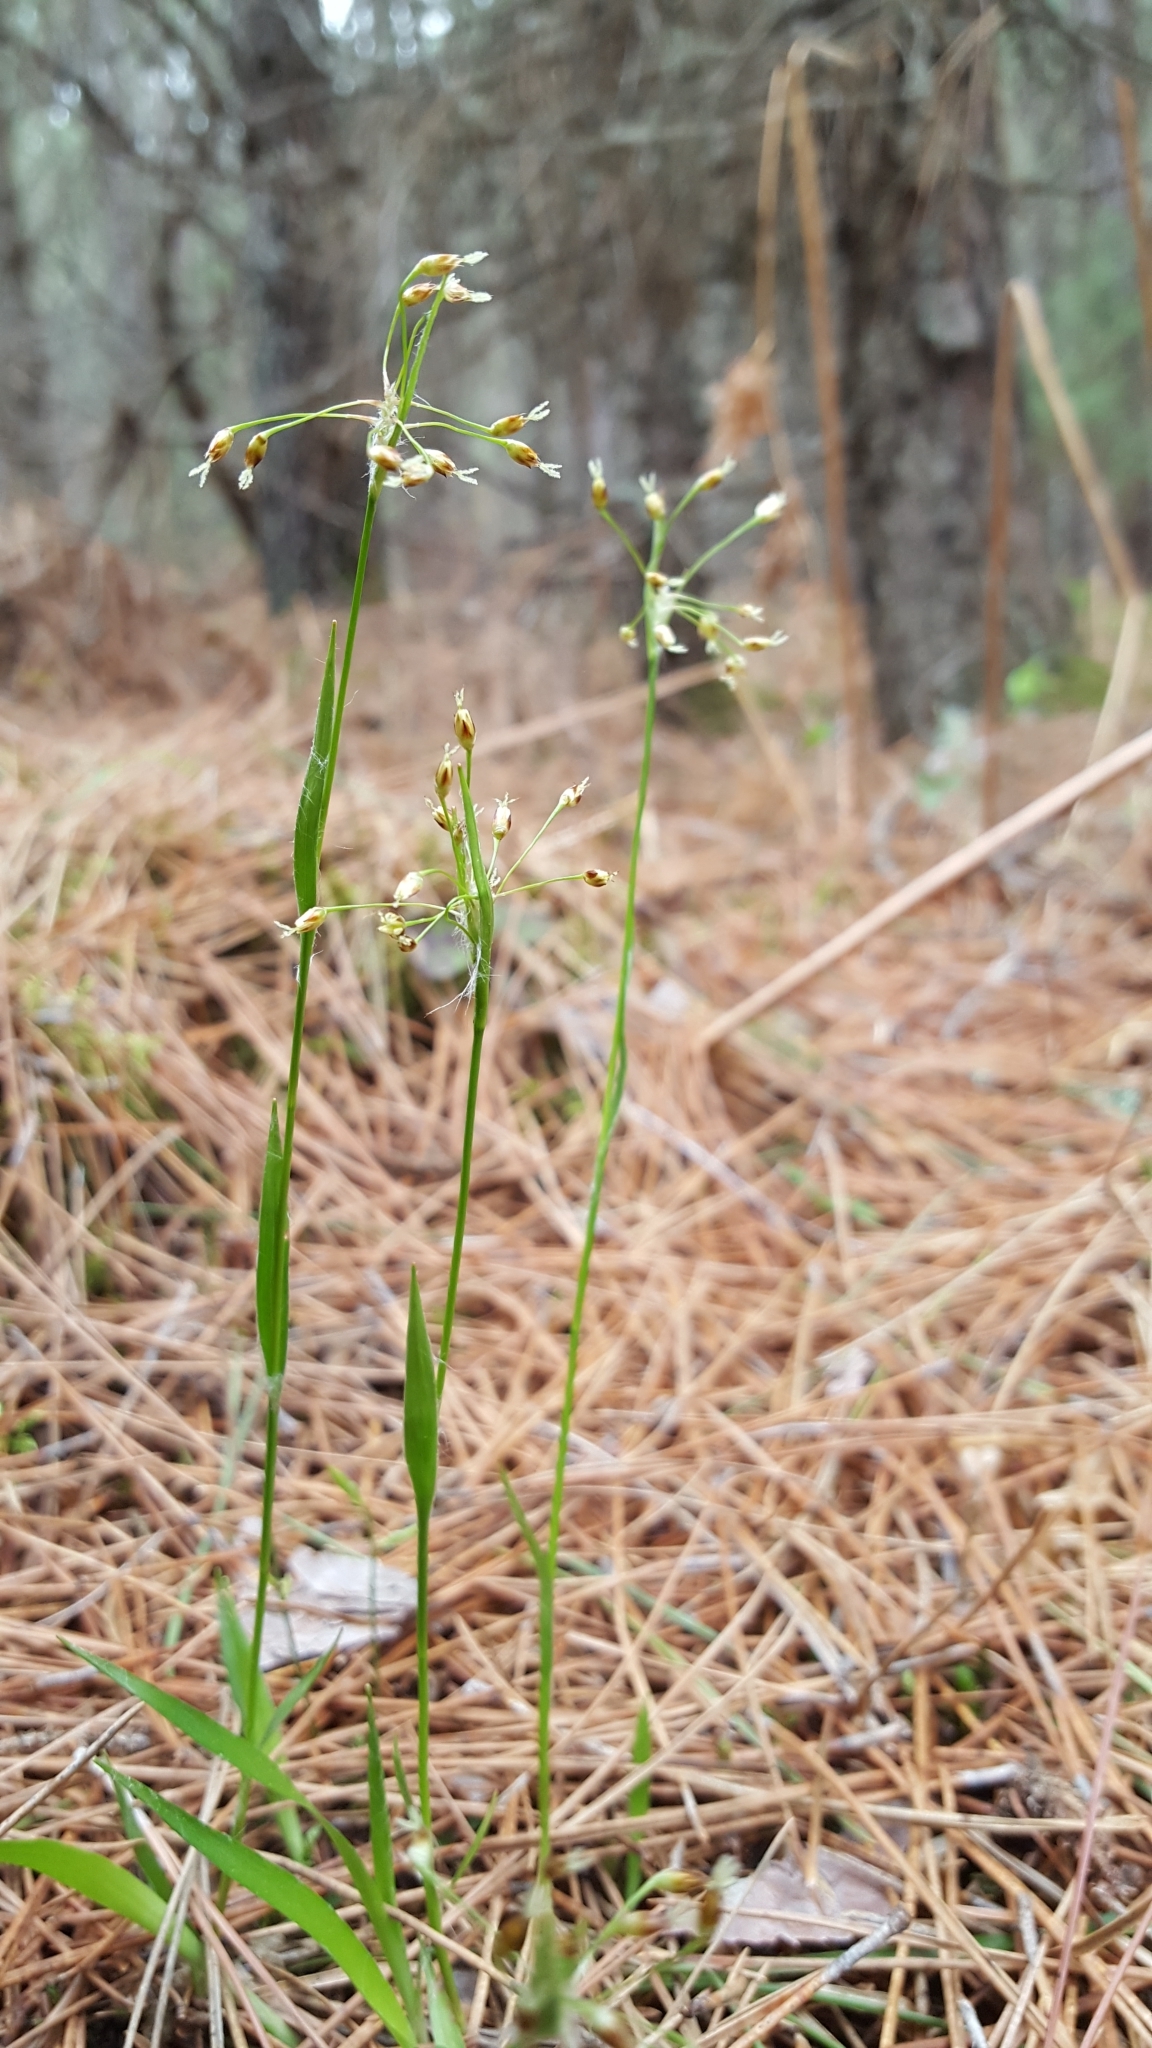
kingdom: Plantae
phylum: Tracheophyta
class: Liliopsida
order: Poales
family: Juncaceae
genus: Luzula
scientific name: Luzula acuminata
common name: Hairy woodrush
